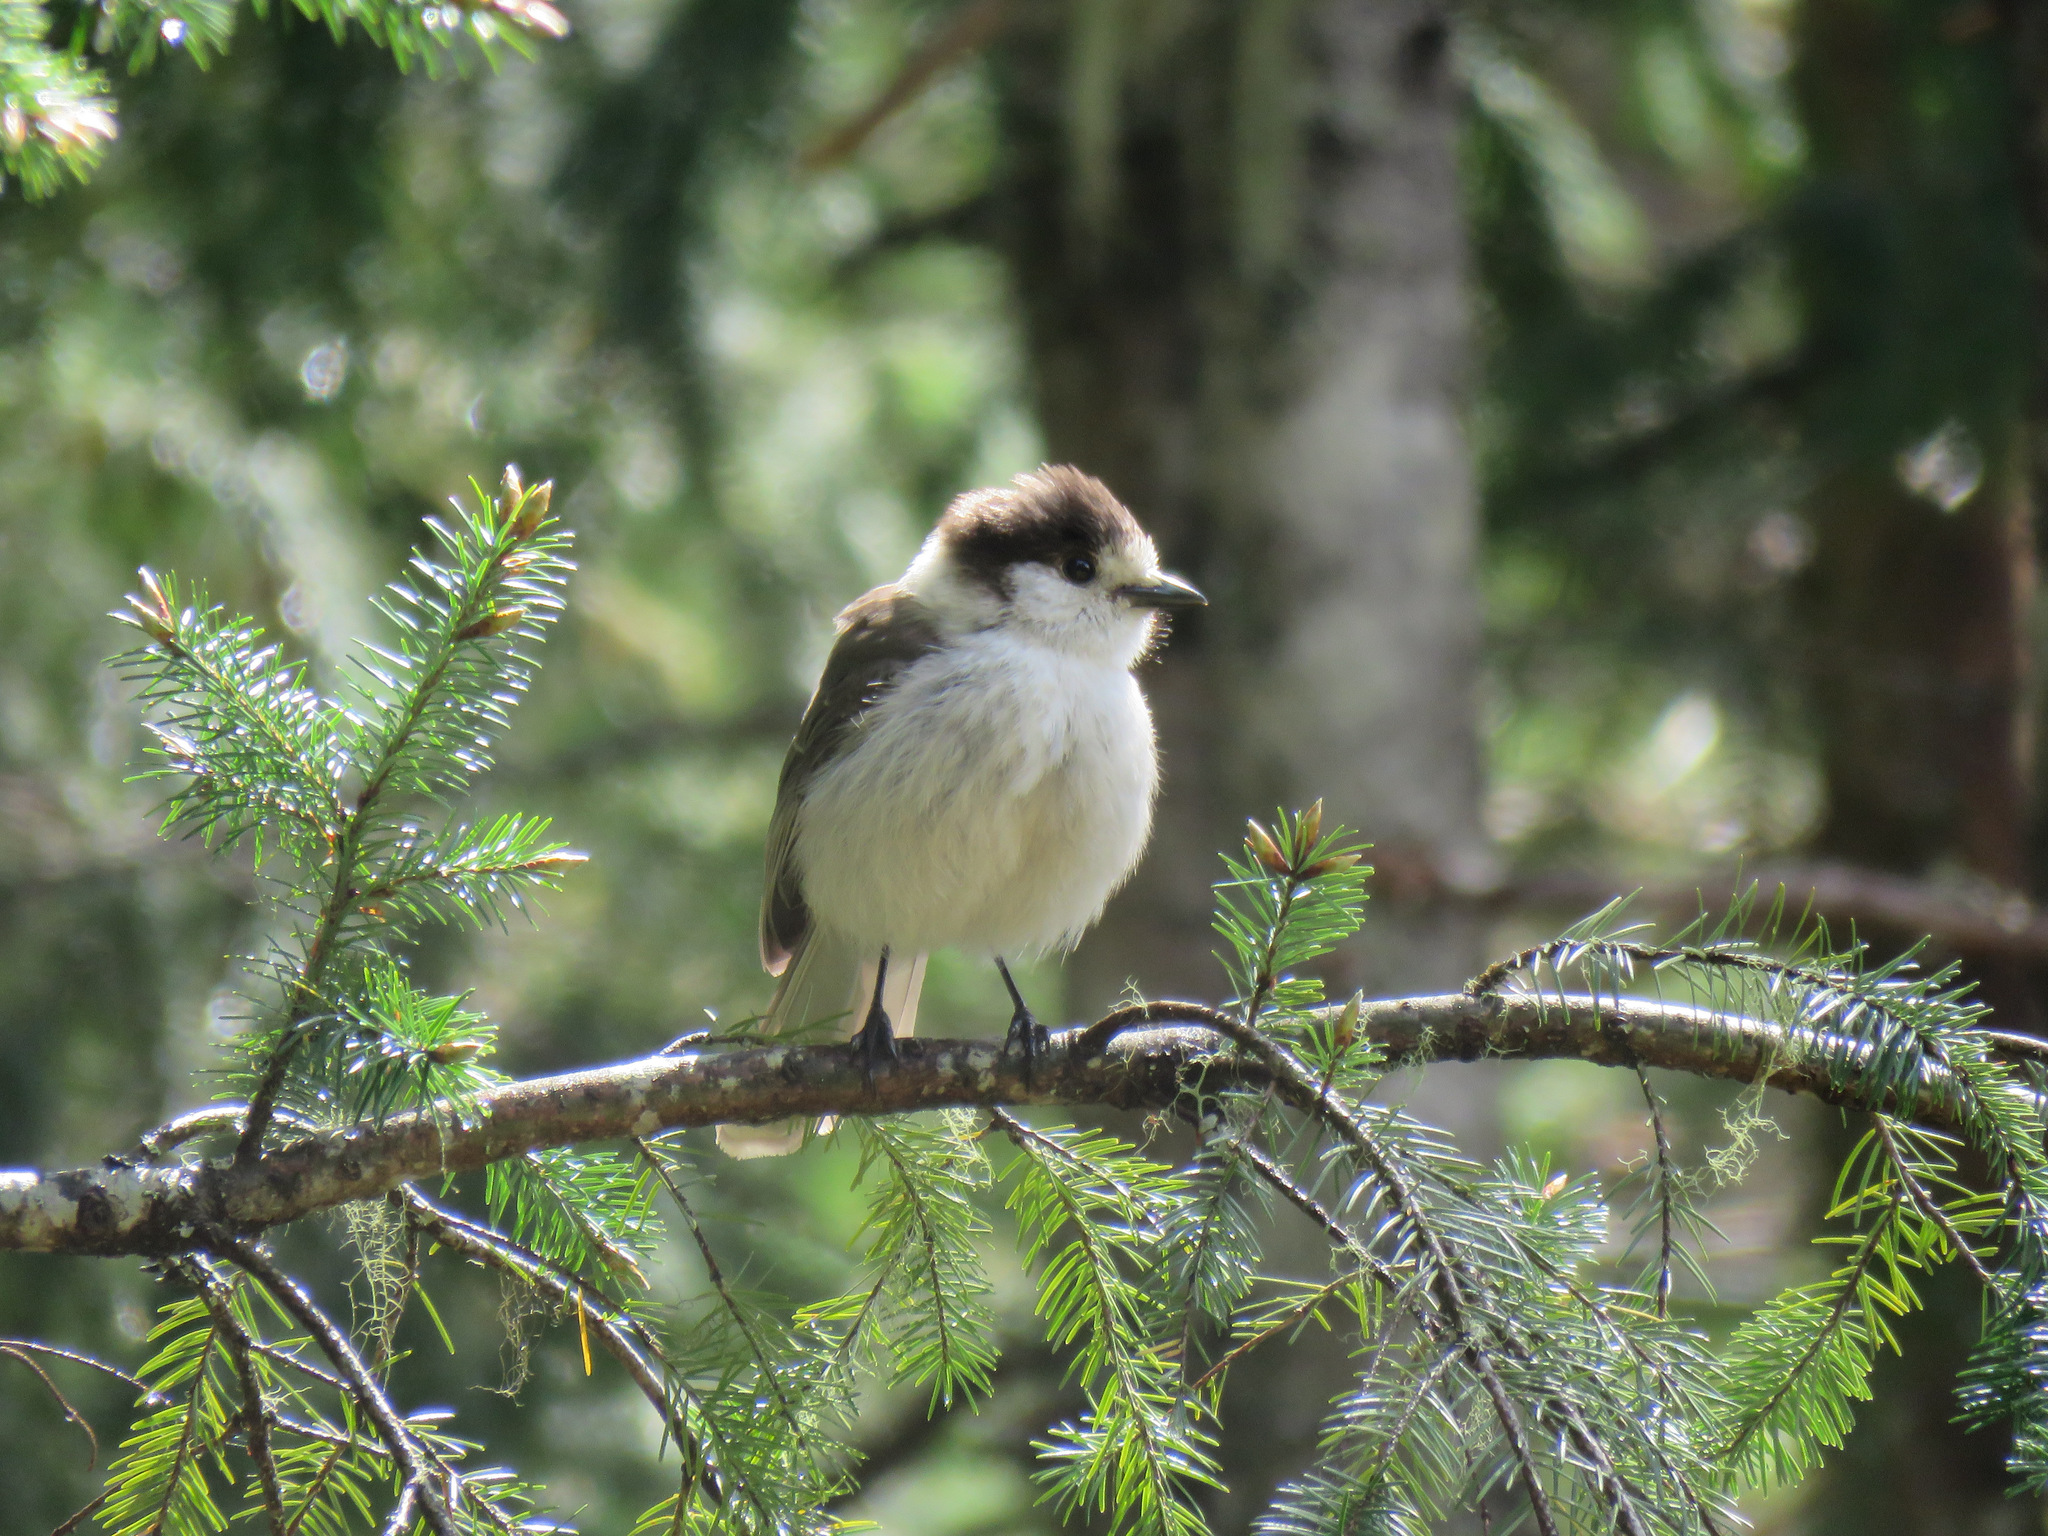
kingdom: Animalia
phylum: Chordata
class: Aves
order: Passeriformes
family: Corvidae
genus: Perisoreus
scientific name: Perisoreus canadensis
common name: Gray jay
